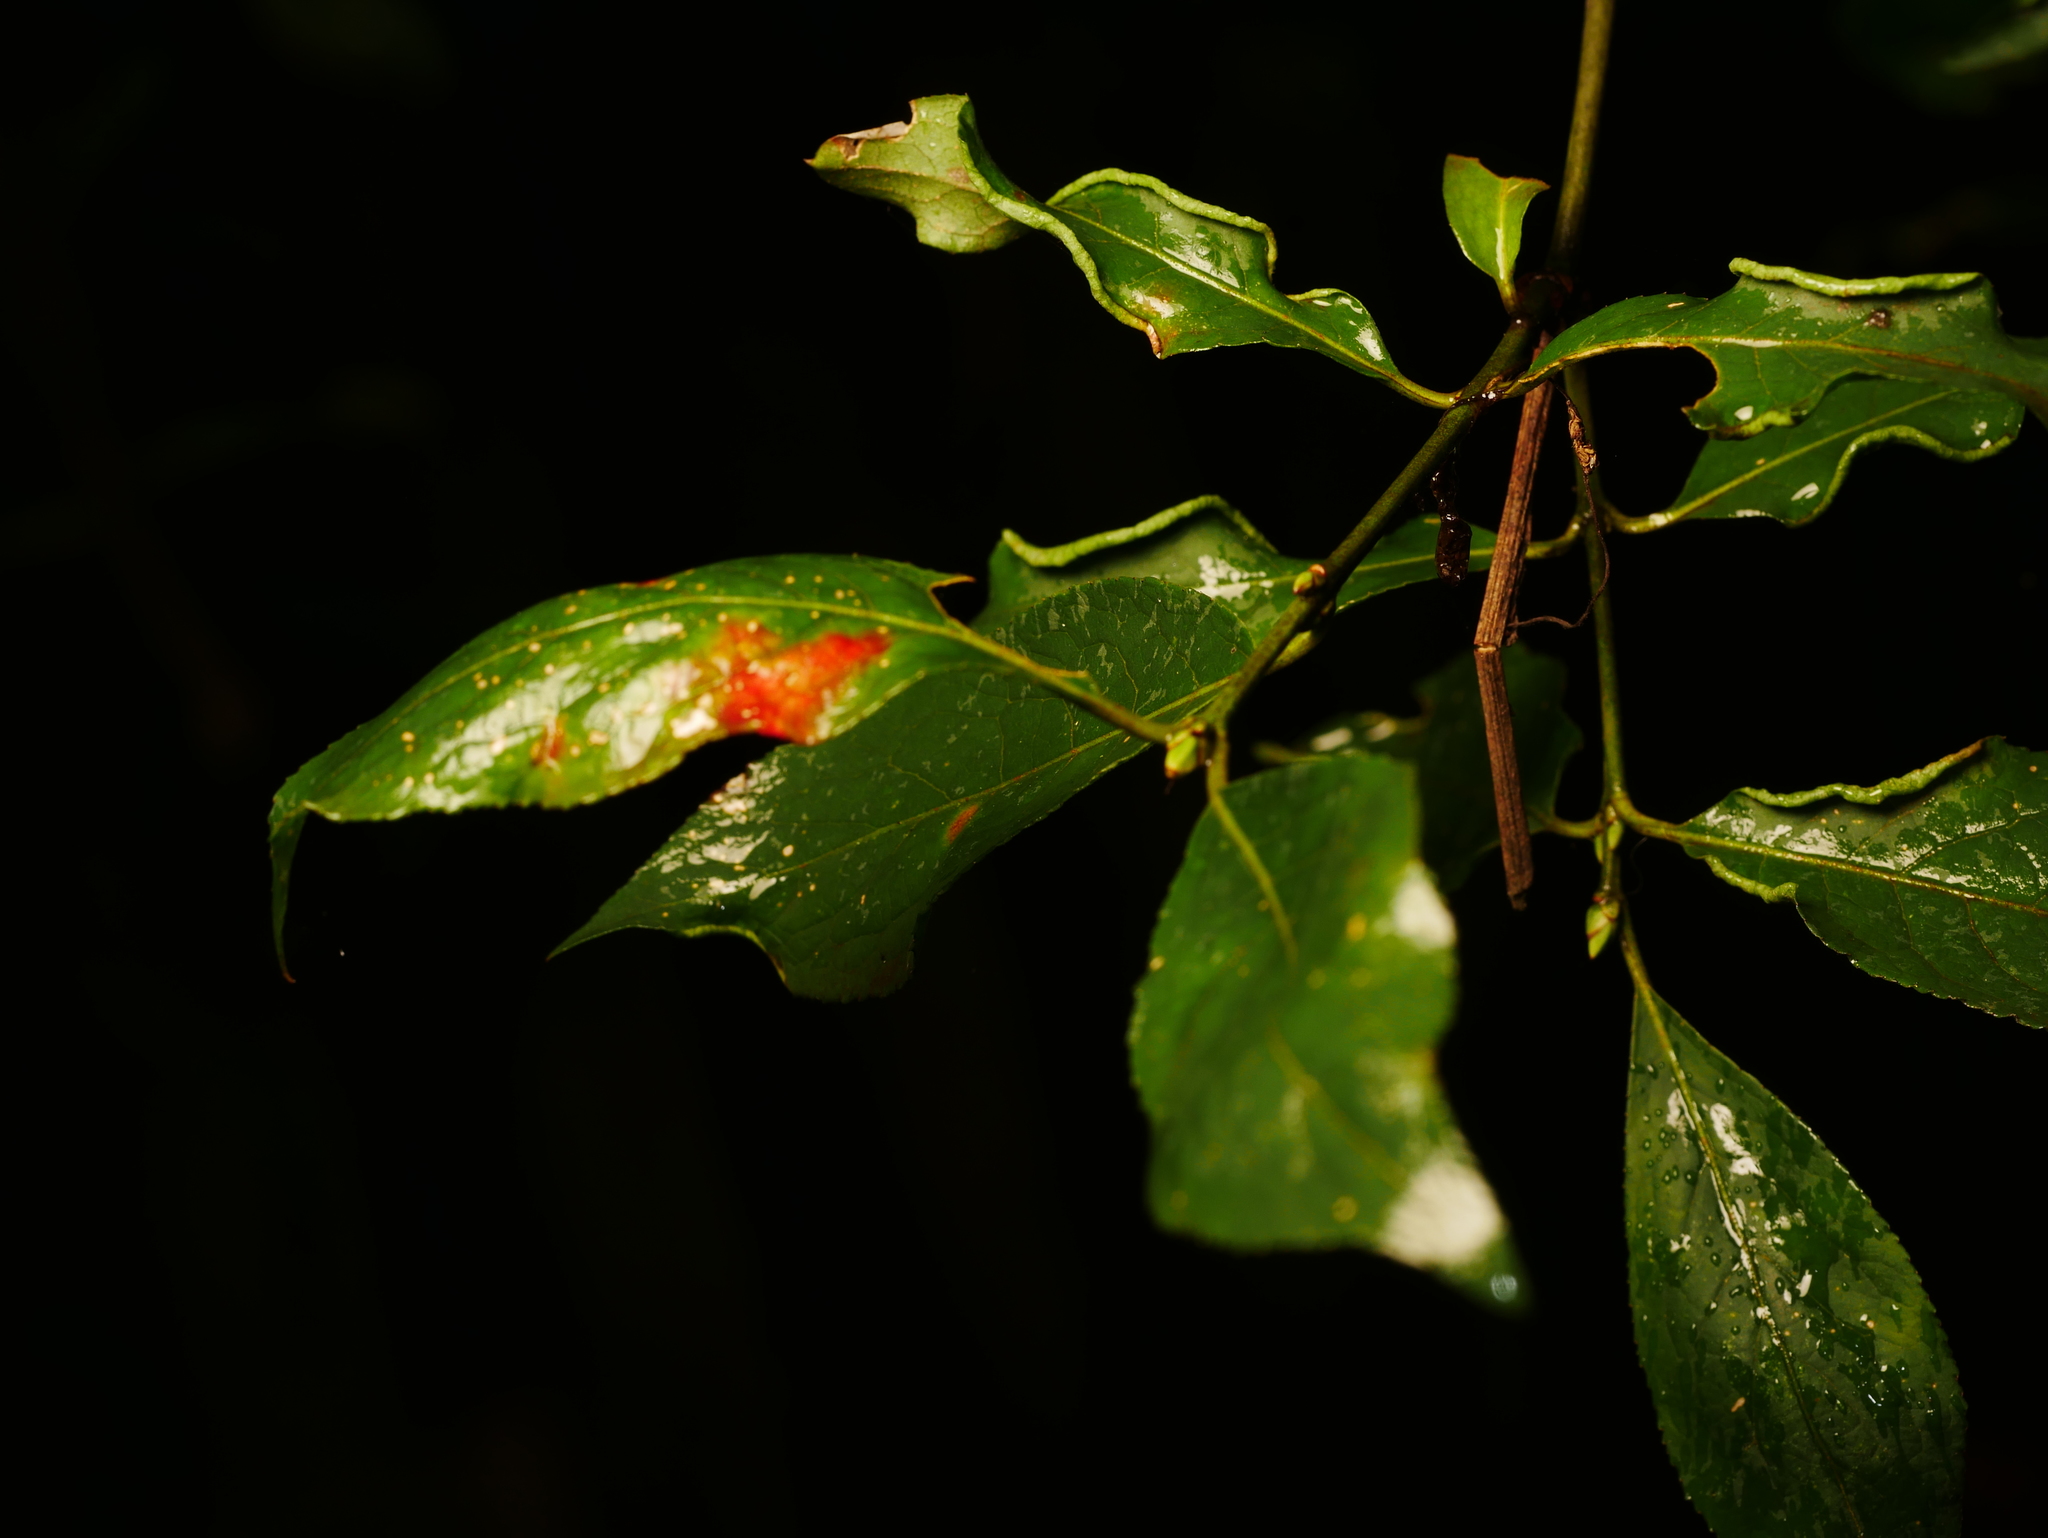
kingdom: Animalia
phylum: Arthropoda
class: Arachnida
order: Trombidiformes
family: Eriophyidae
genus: Stenacis
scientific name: Stenacis evonymi
